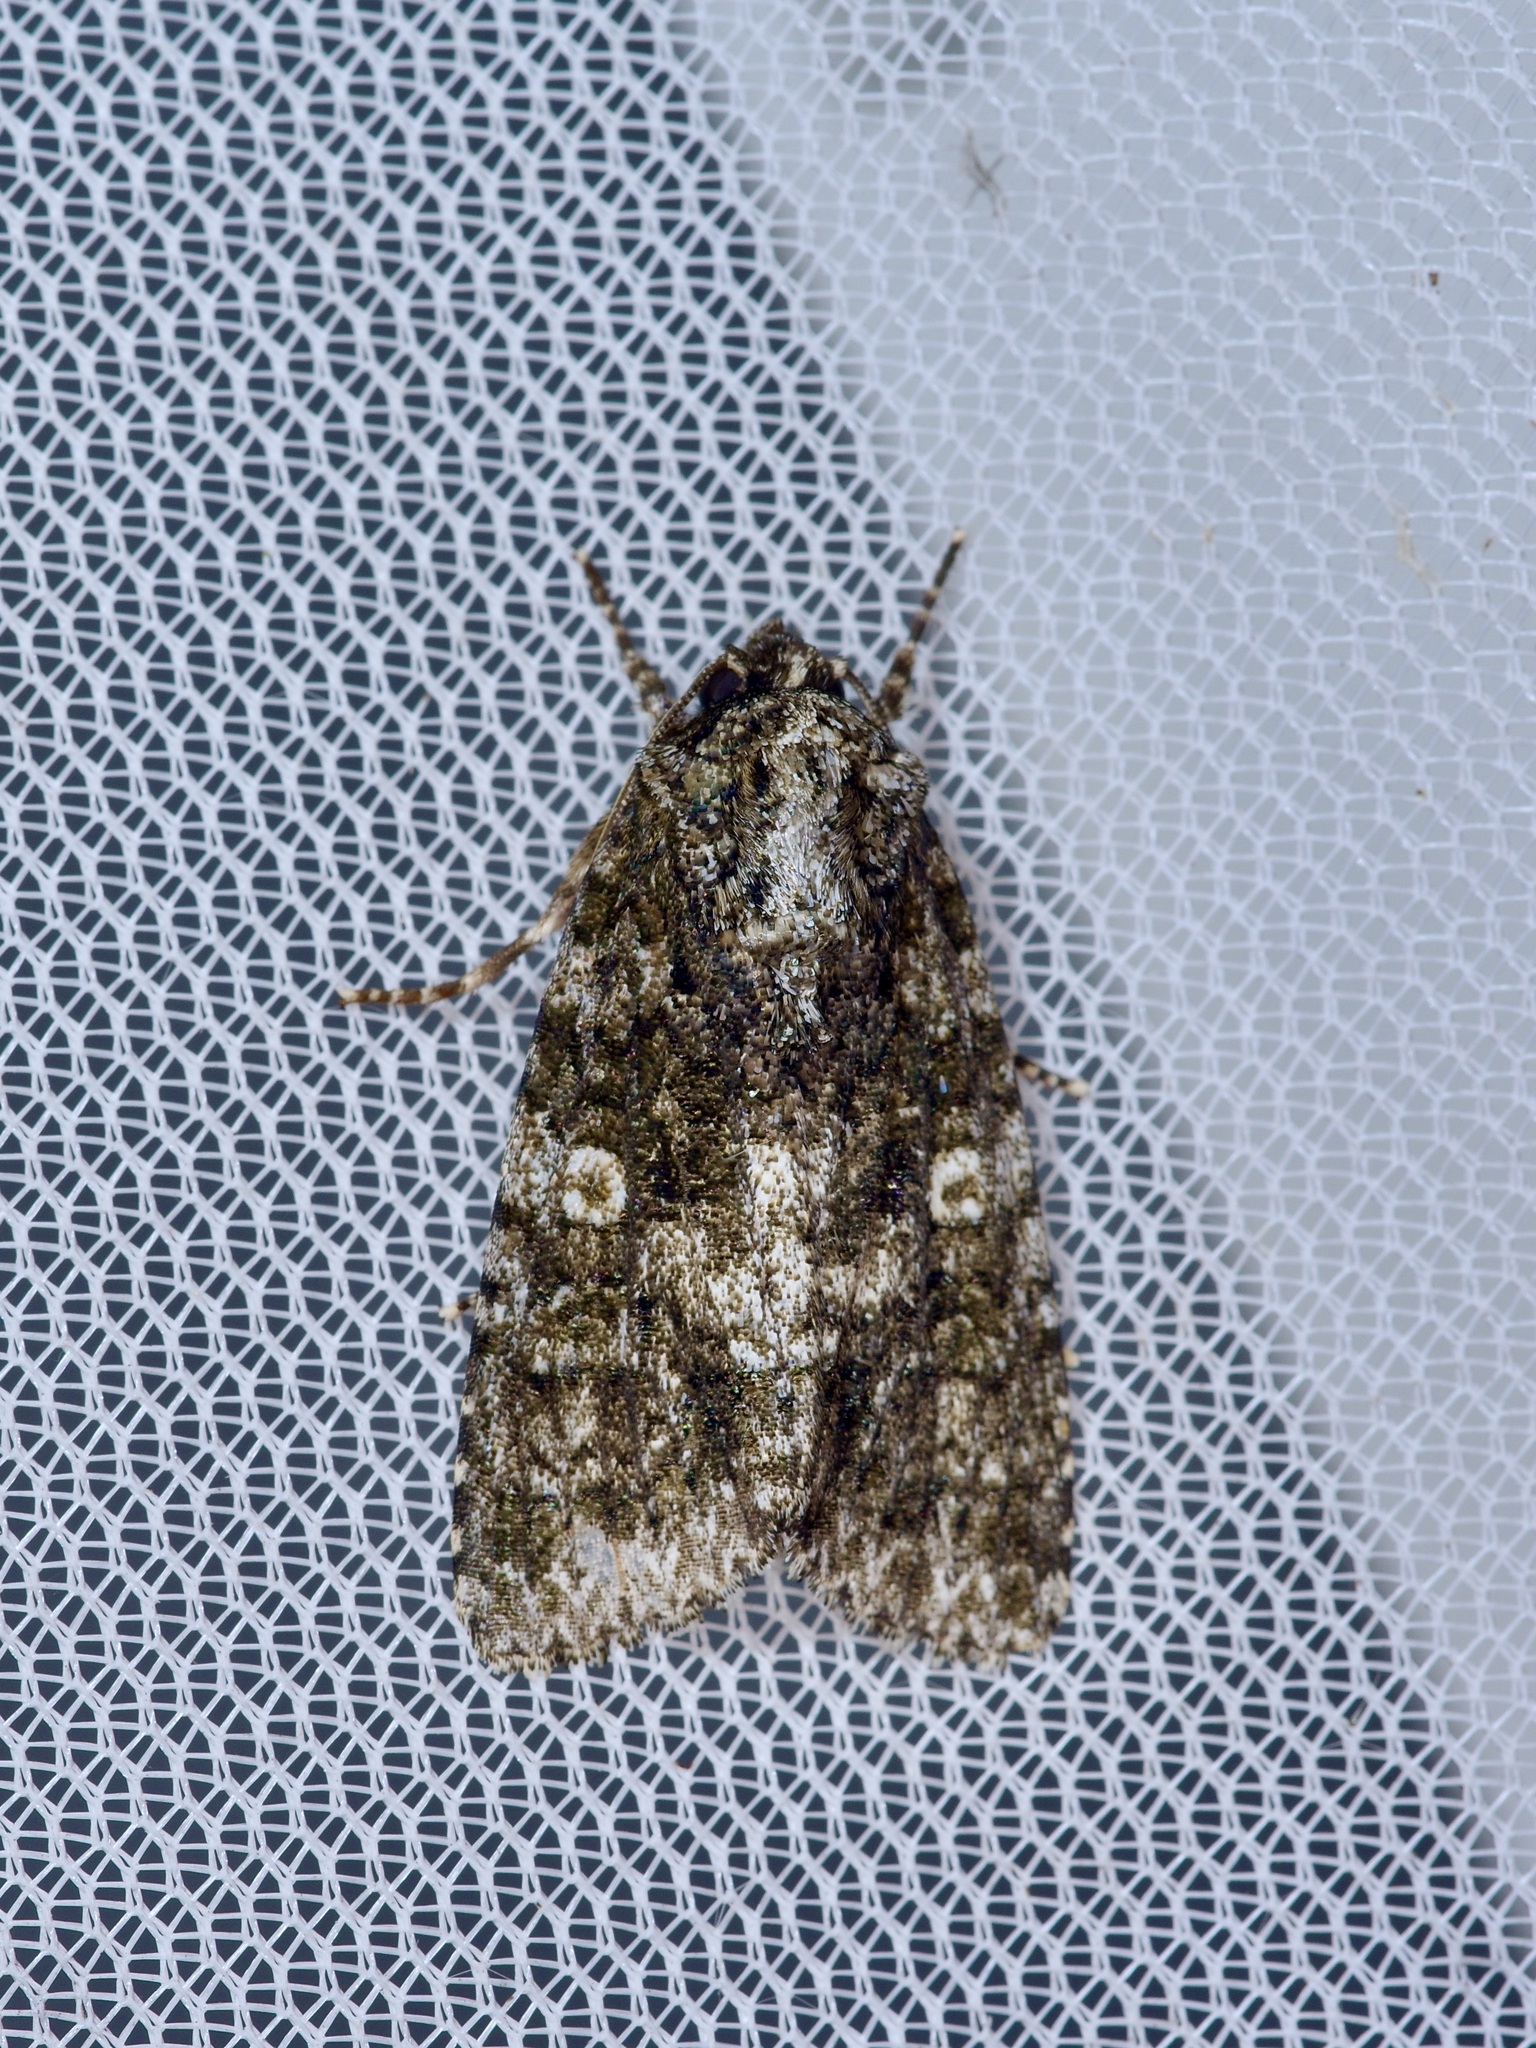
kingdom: Animalia
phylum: Arthropoda
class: Insecta
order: Lepidoptera
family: Noctuidae
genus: Acronicta
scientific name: Acronicta afflicta
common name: Afflicted dagger moth
